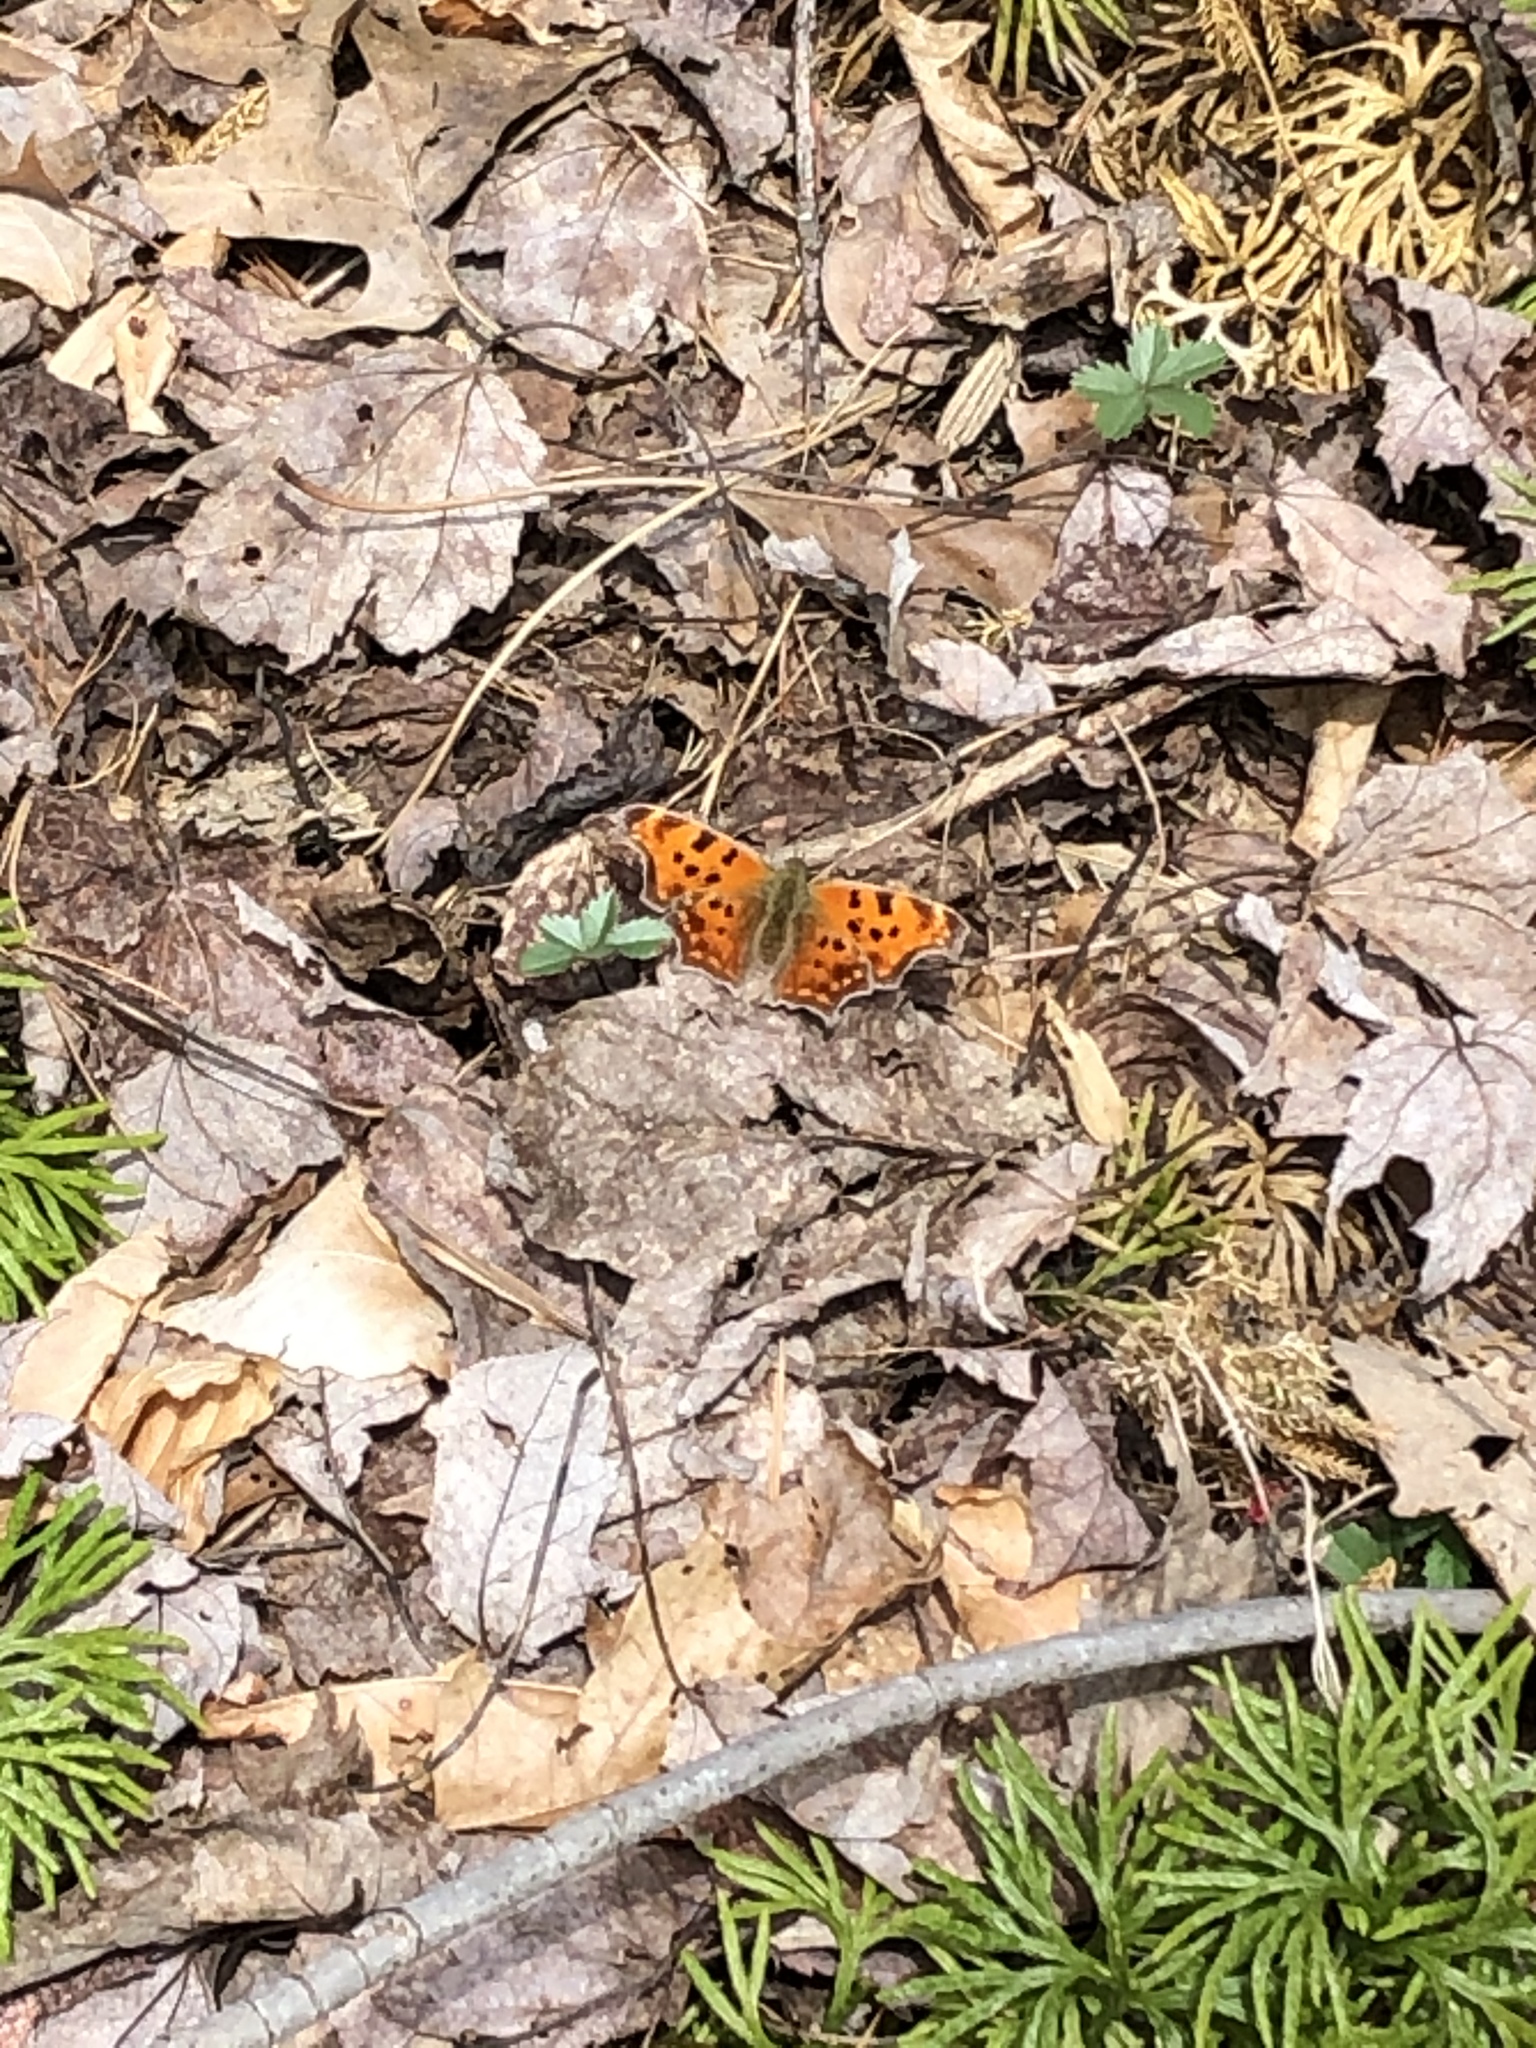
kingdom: Animalia
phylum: Arthropoda
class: Insecta
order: Lepidoptera
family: Nymphalidae
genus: Polygonia
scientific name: Polygonia comma
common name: Eastern comma
